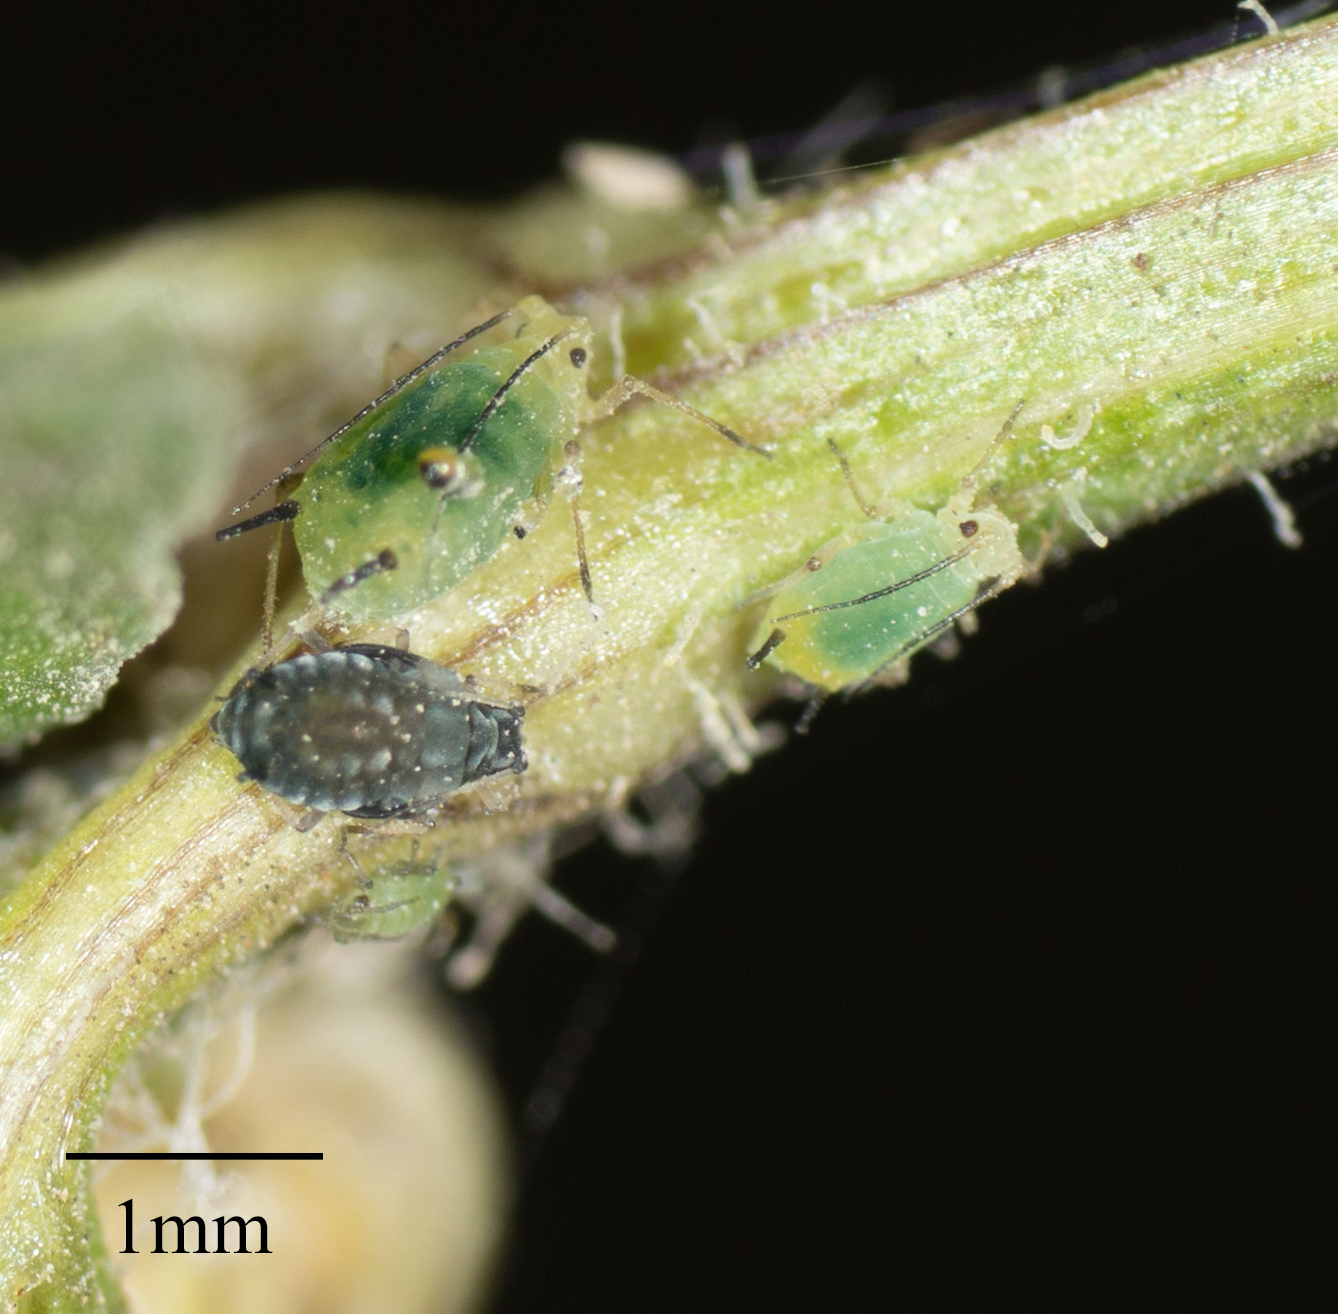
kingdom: Animalia
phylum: Arthropoda
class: Insecta
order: Hemiptera
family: Aphididae
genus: Aphis
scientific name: Aphis coreopsidis
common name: Aphid
